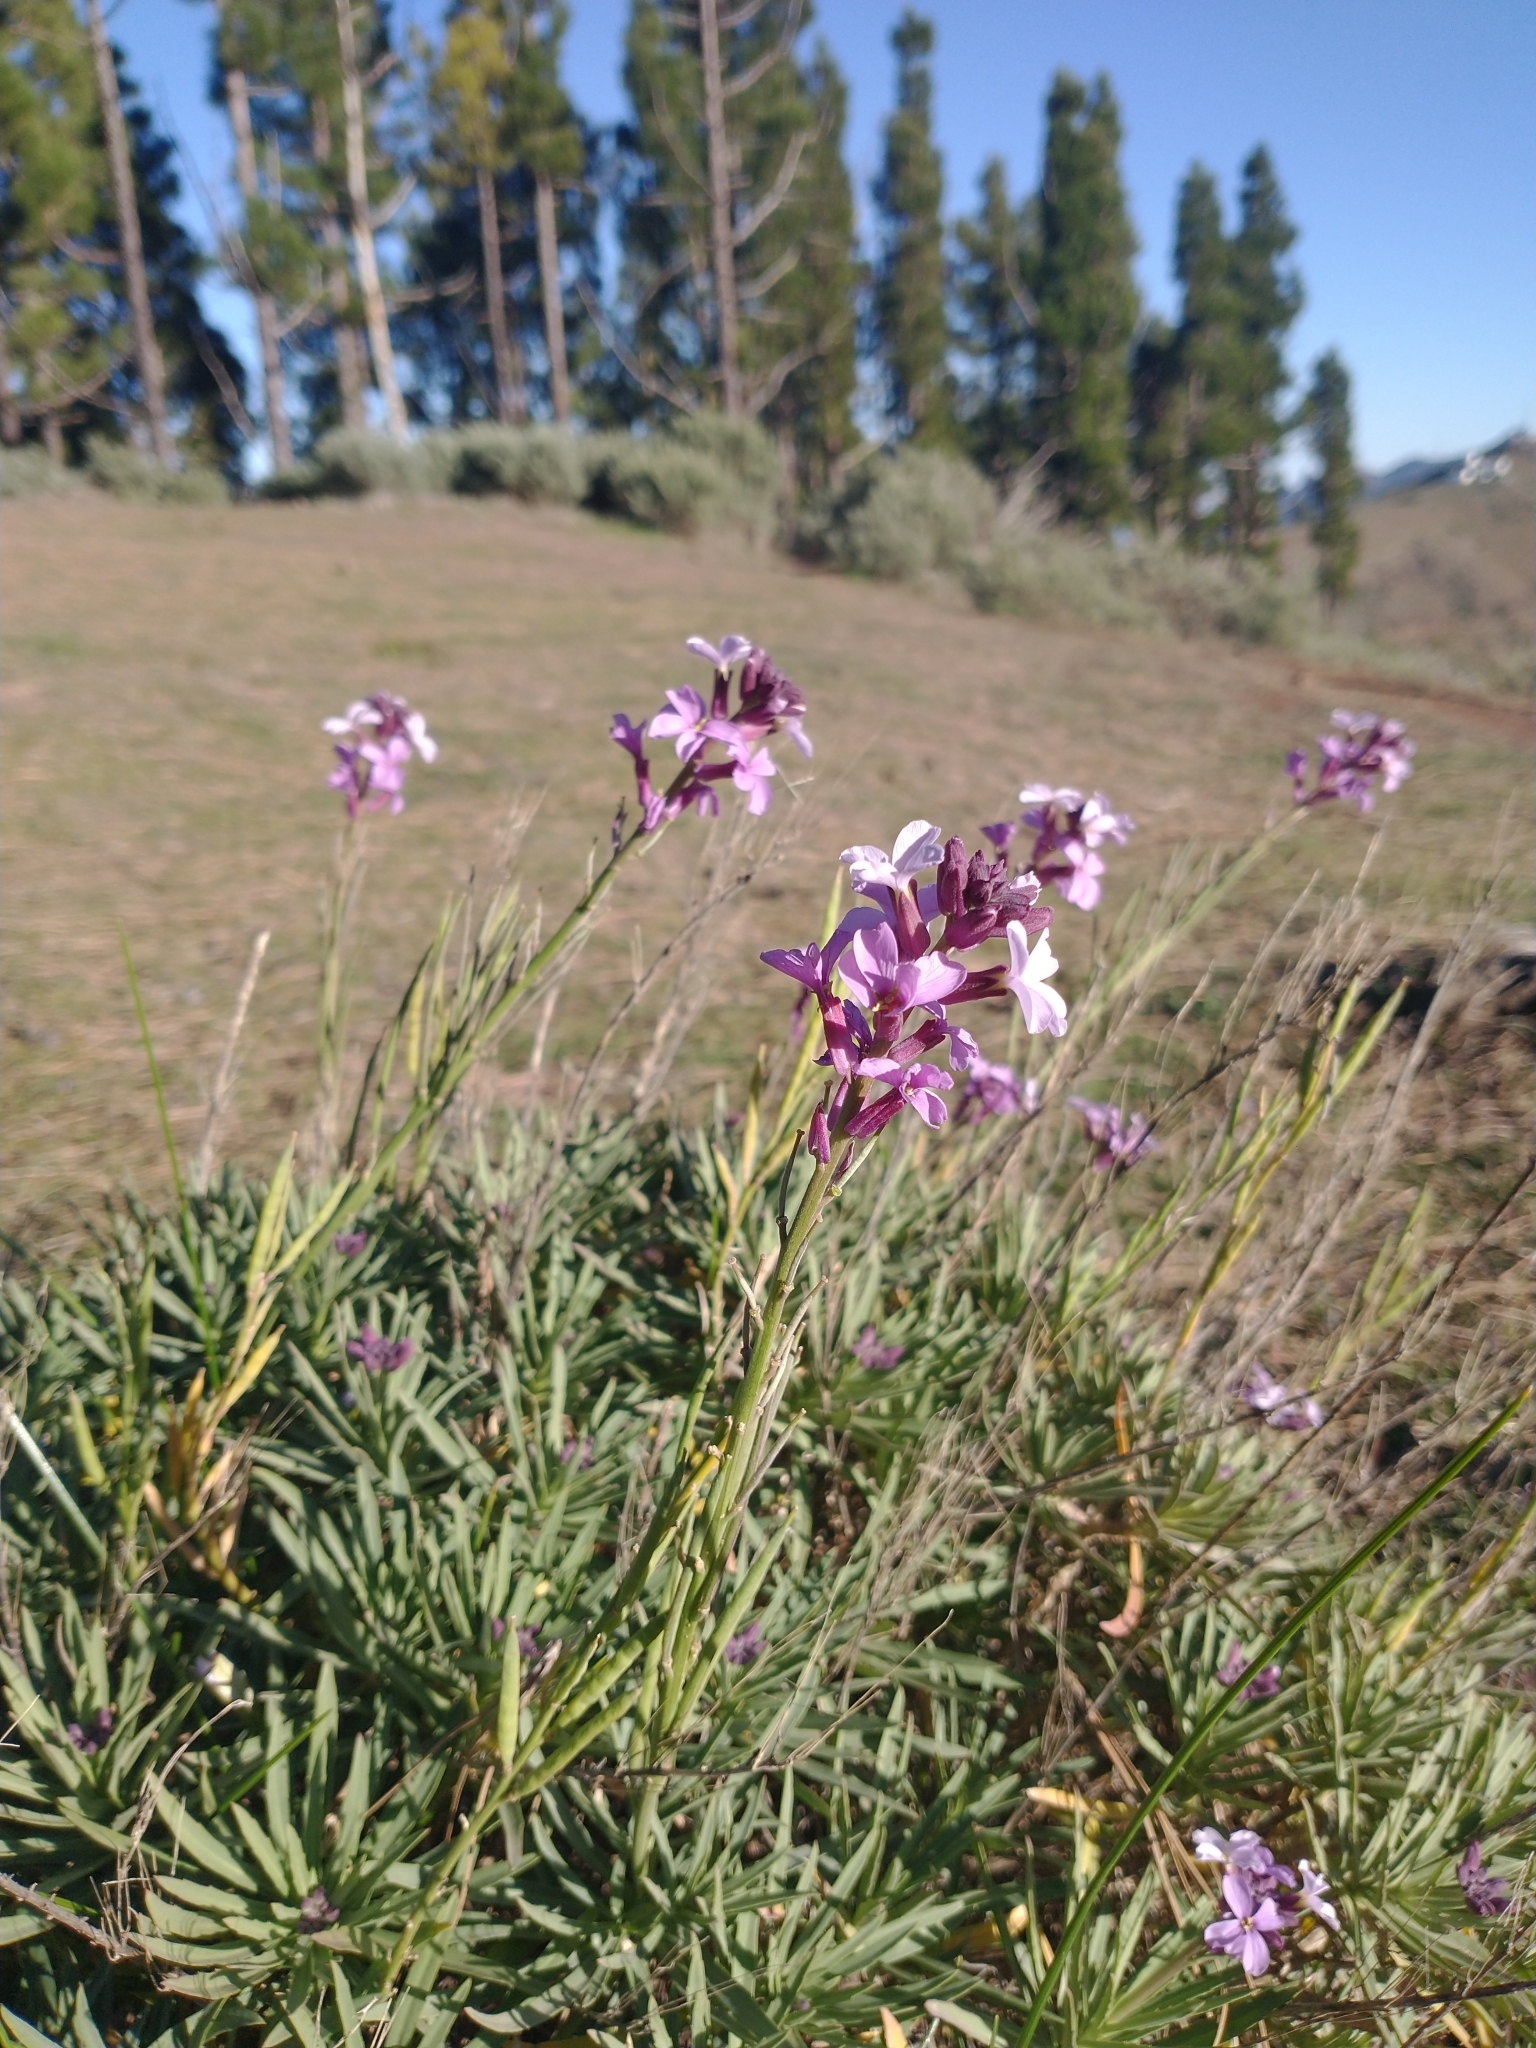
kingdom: Plantae
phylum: Tracheophyta
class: Magnoliopsida
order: Brassicales
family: Brassicaceae
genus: Erysimum
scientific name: Erysimum scoparium
